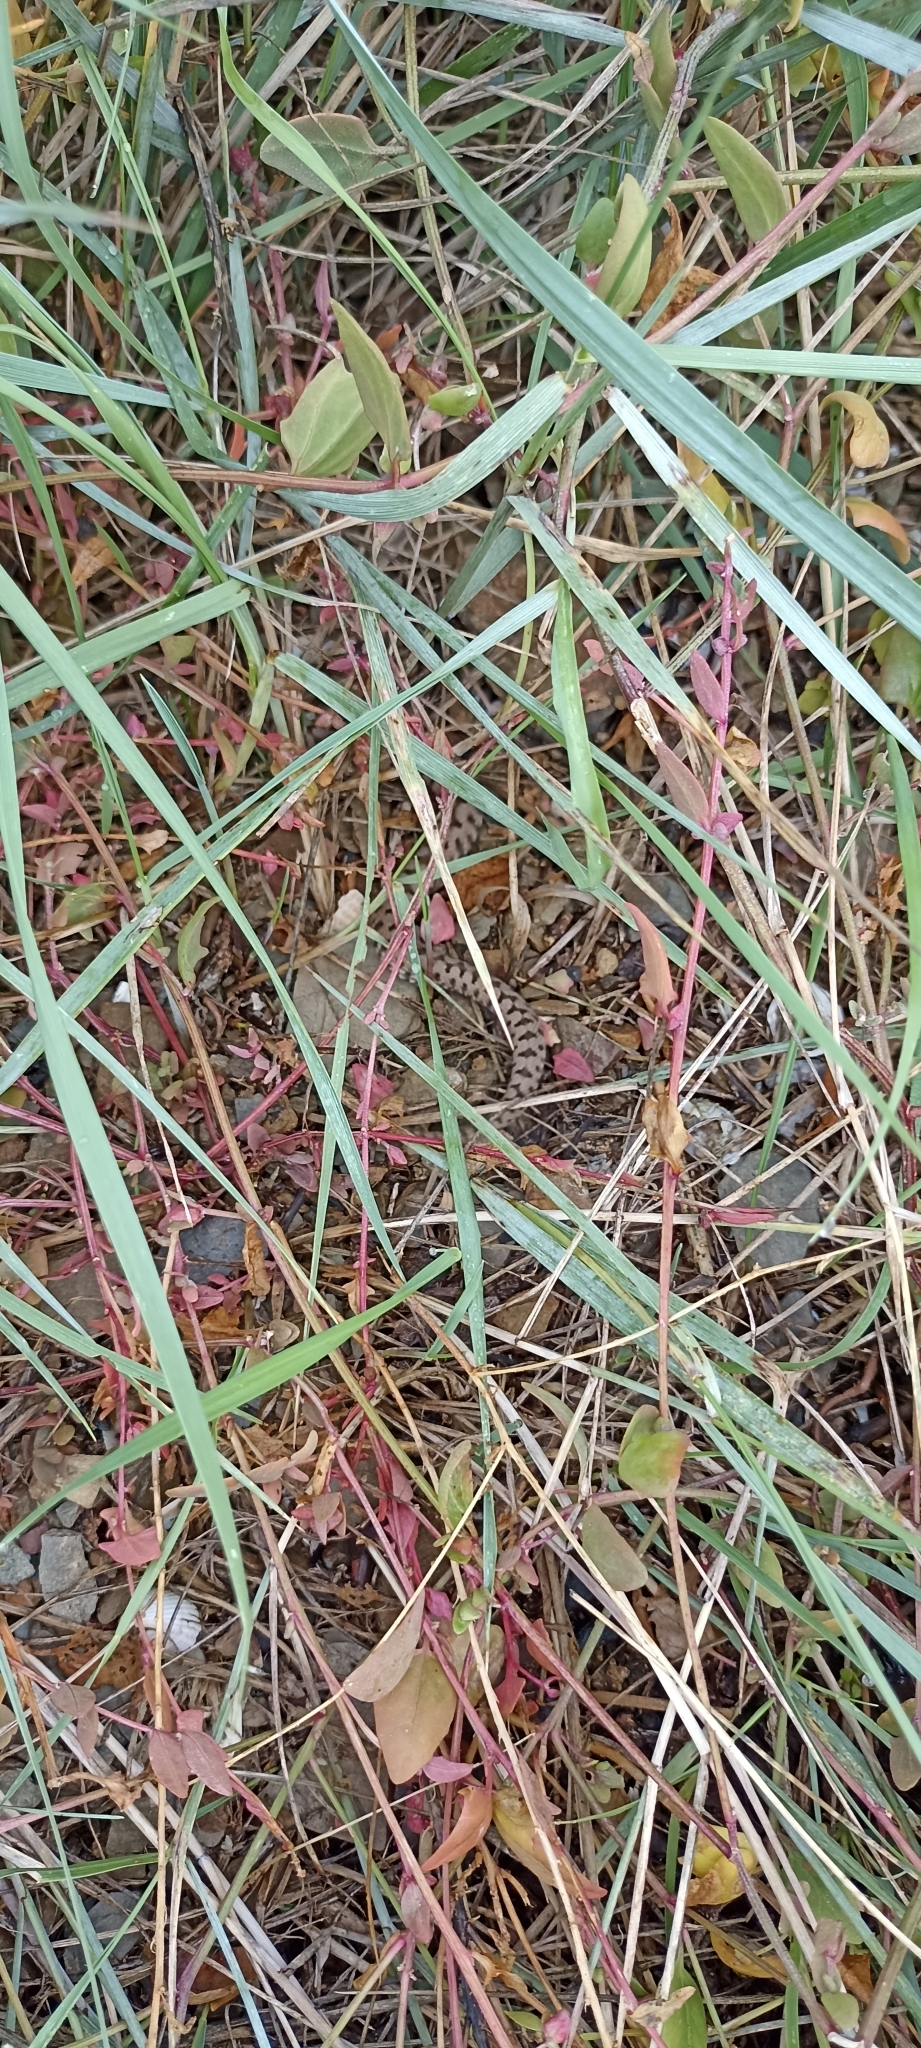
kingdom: Animalia
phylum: Chordata
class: Squamata
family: Viperidae
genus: Vipera
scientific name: Vipera aspis
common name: Asp viper
